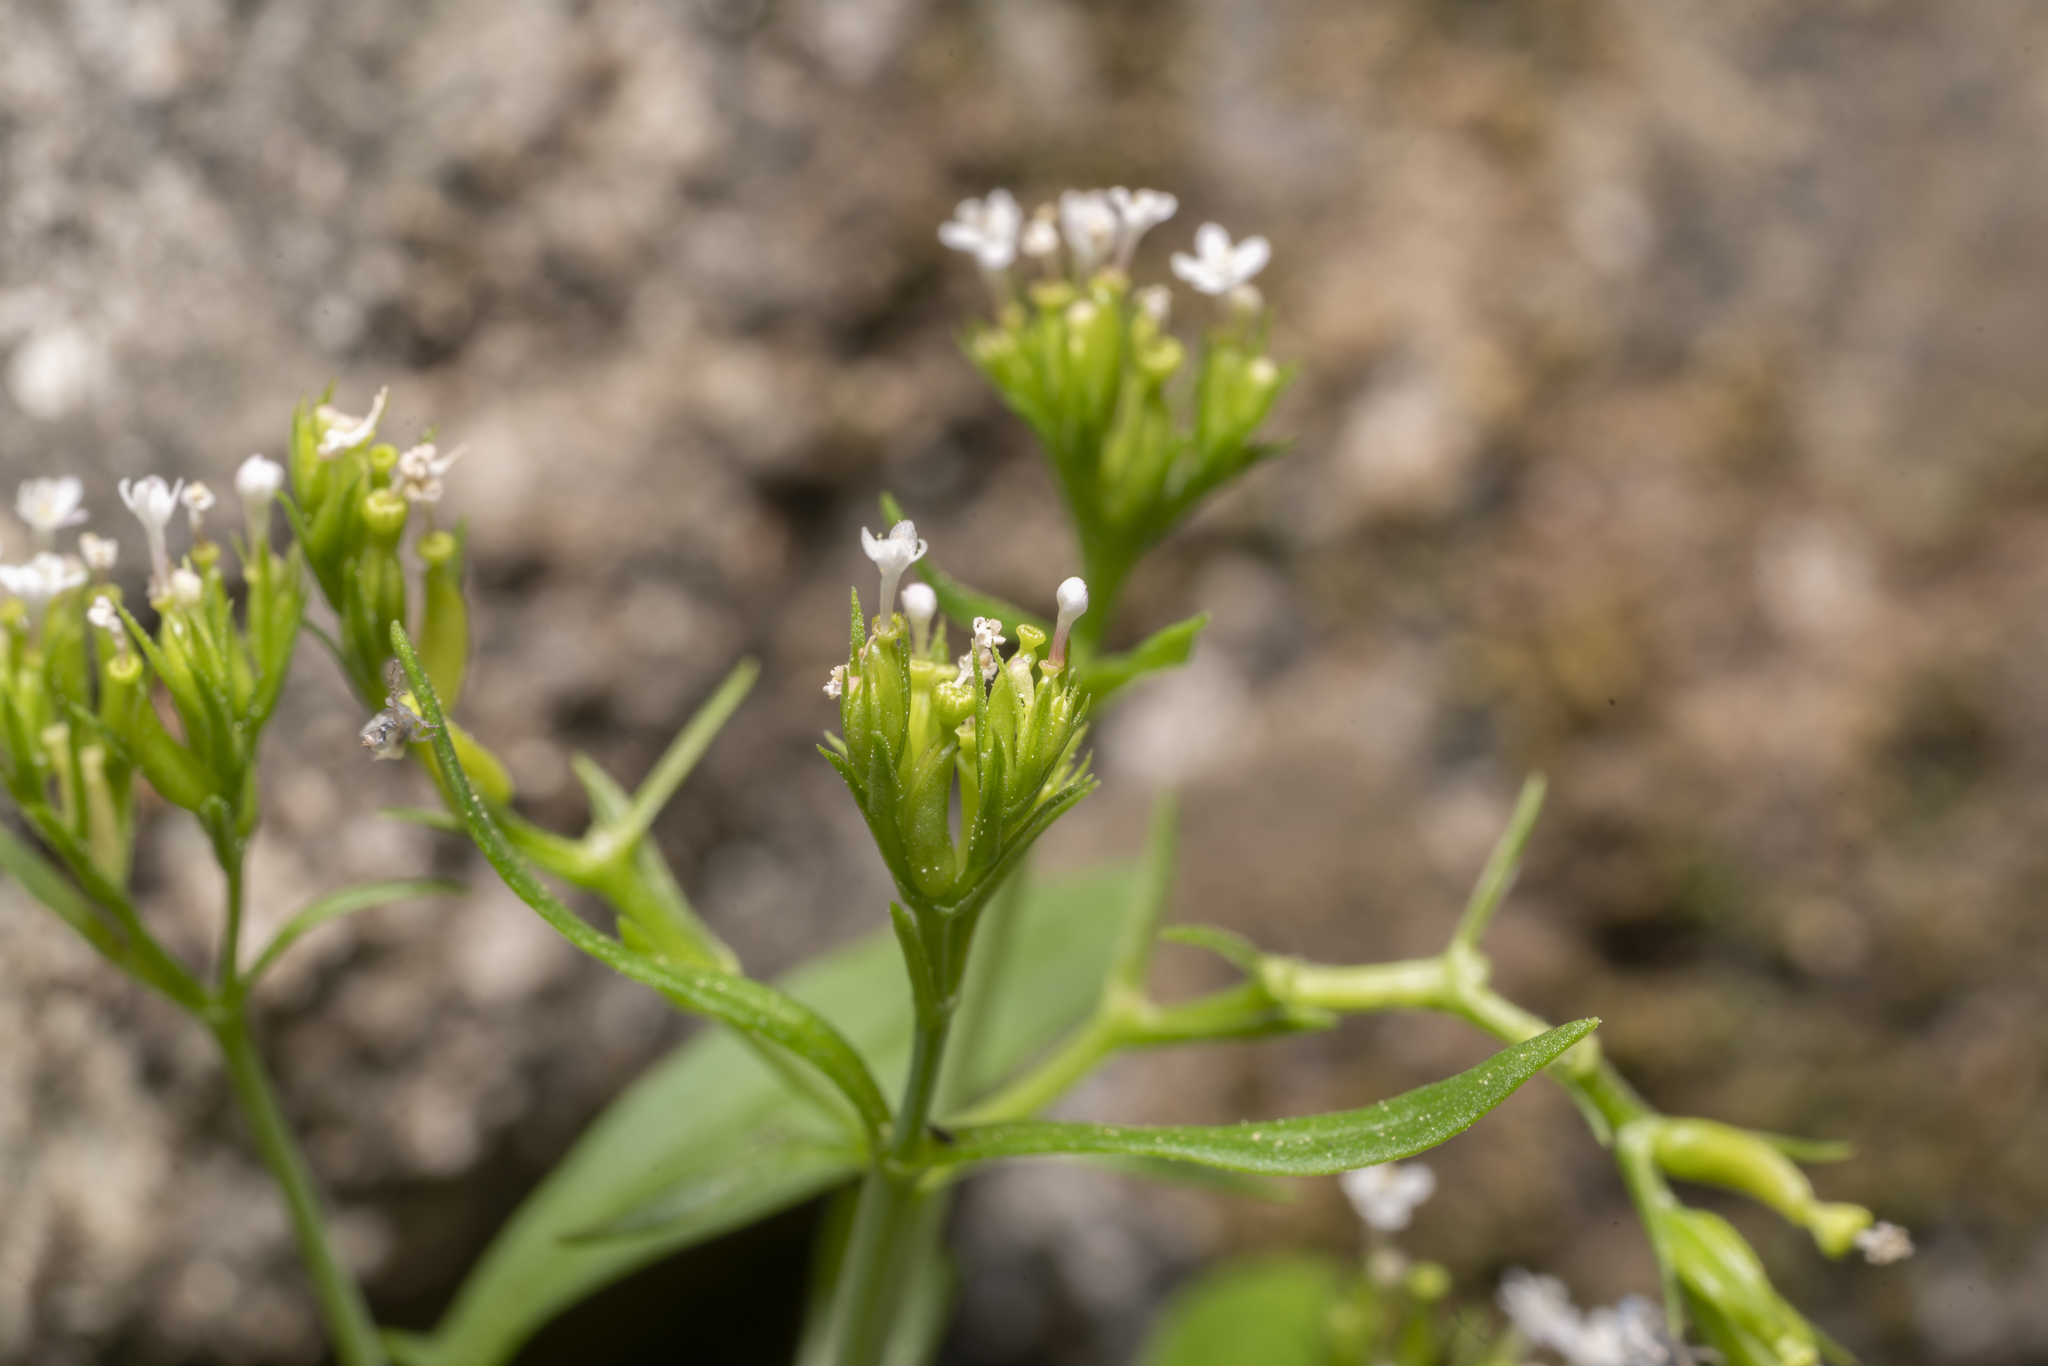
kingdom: Plantae
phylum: Tracheophyta
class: Magnoliopsida
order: Dipsacales
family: Caprifoliaceae
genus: Centranthus
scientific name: Centranthus calcitrapae
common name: Annual valerian
